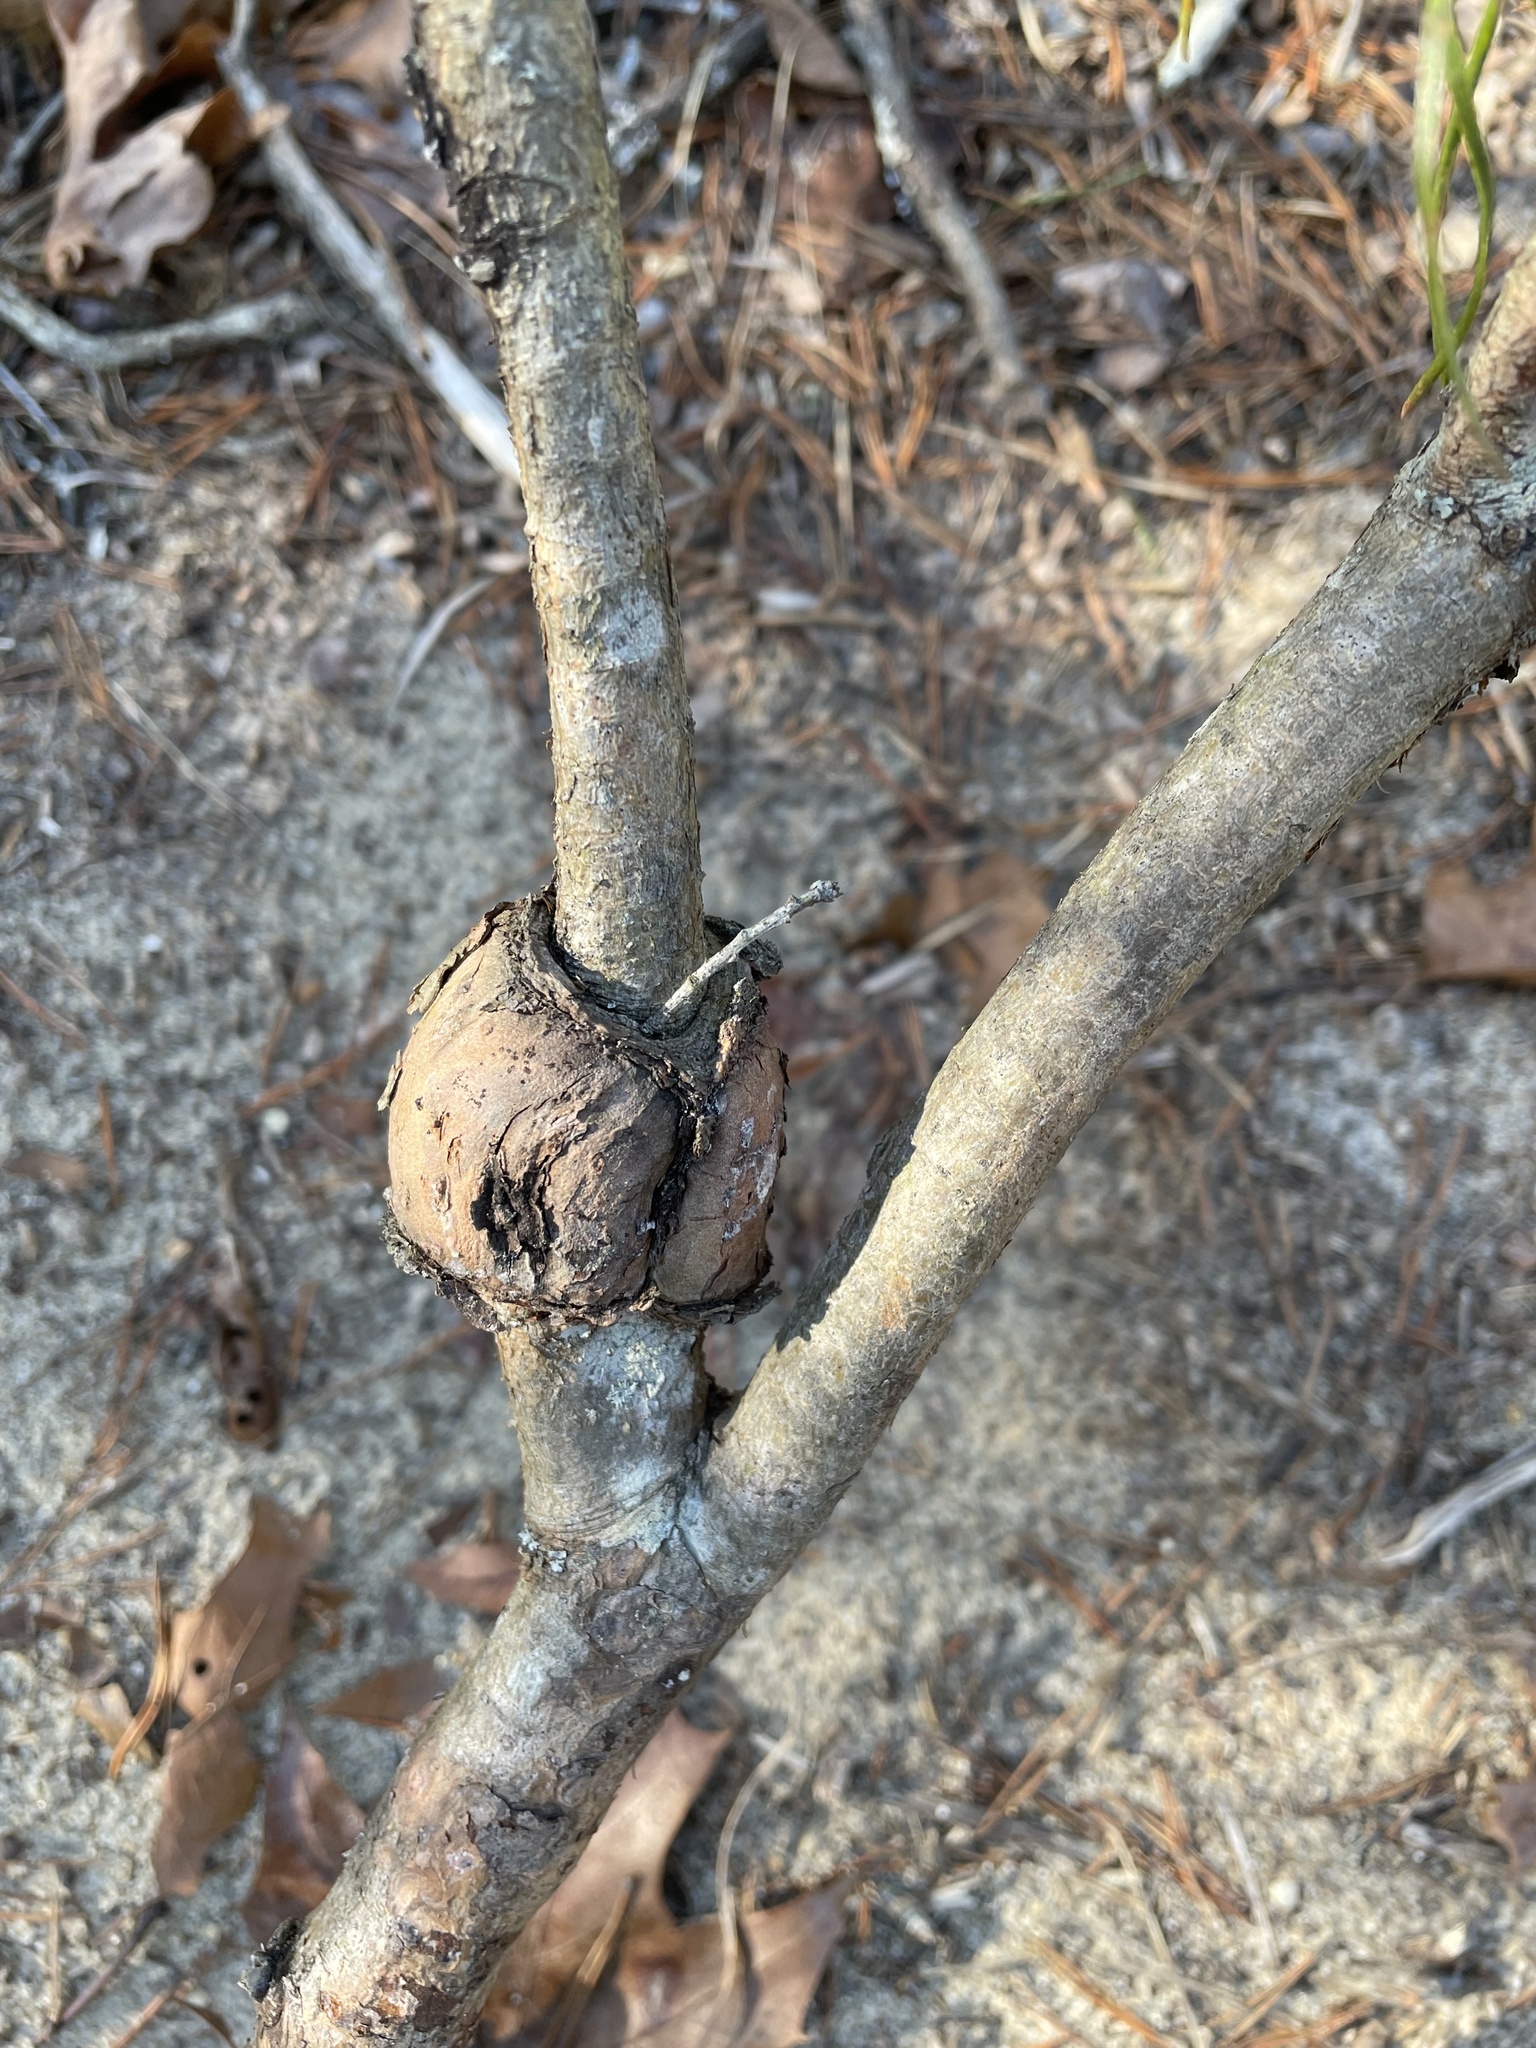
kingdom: Fungi
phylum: Basidiomycota
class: Pucciniomycetes
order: Pucciniales
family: Cronartiaceae
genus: Cronartium
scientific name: Cronartium quercuum
